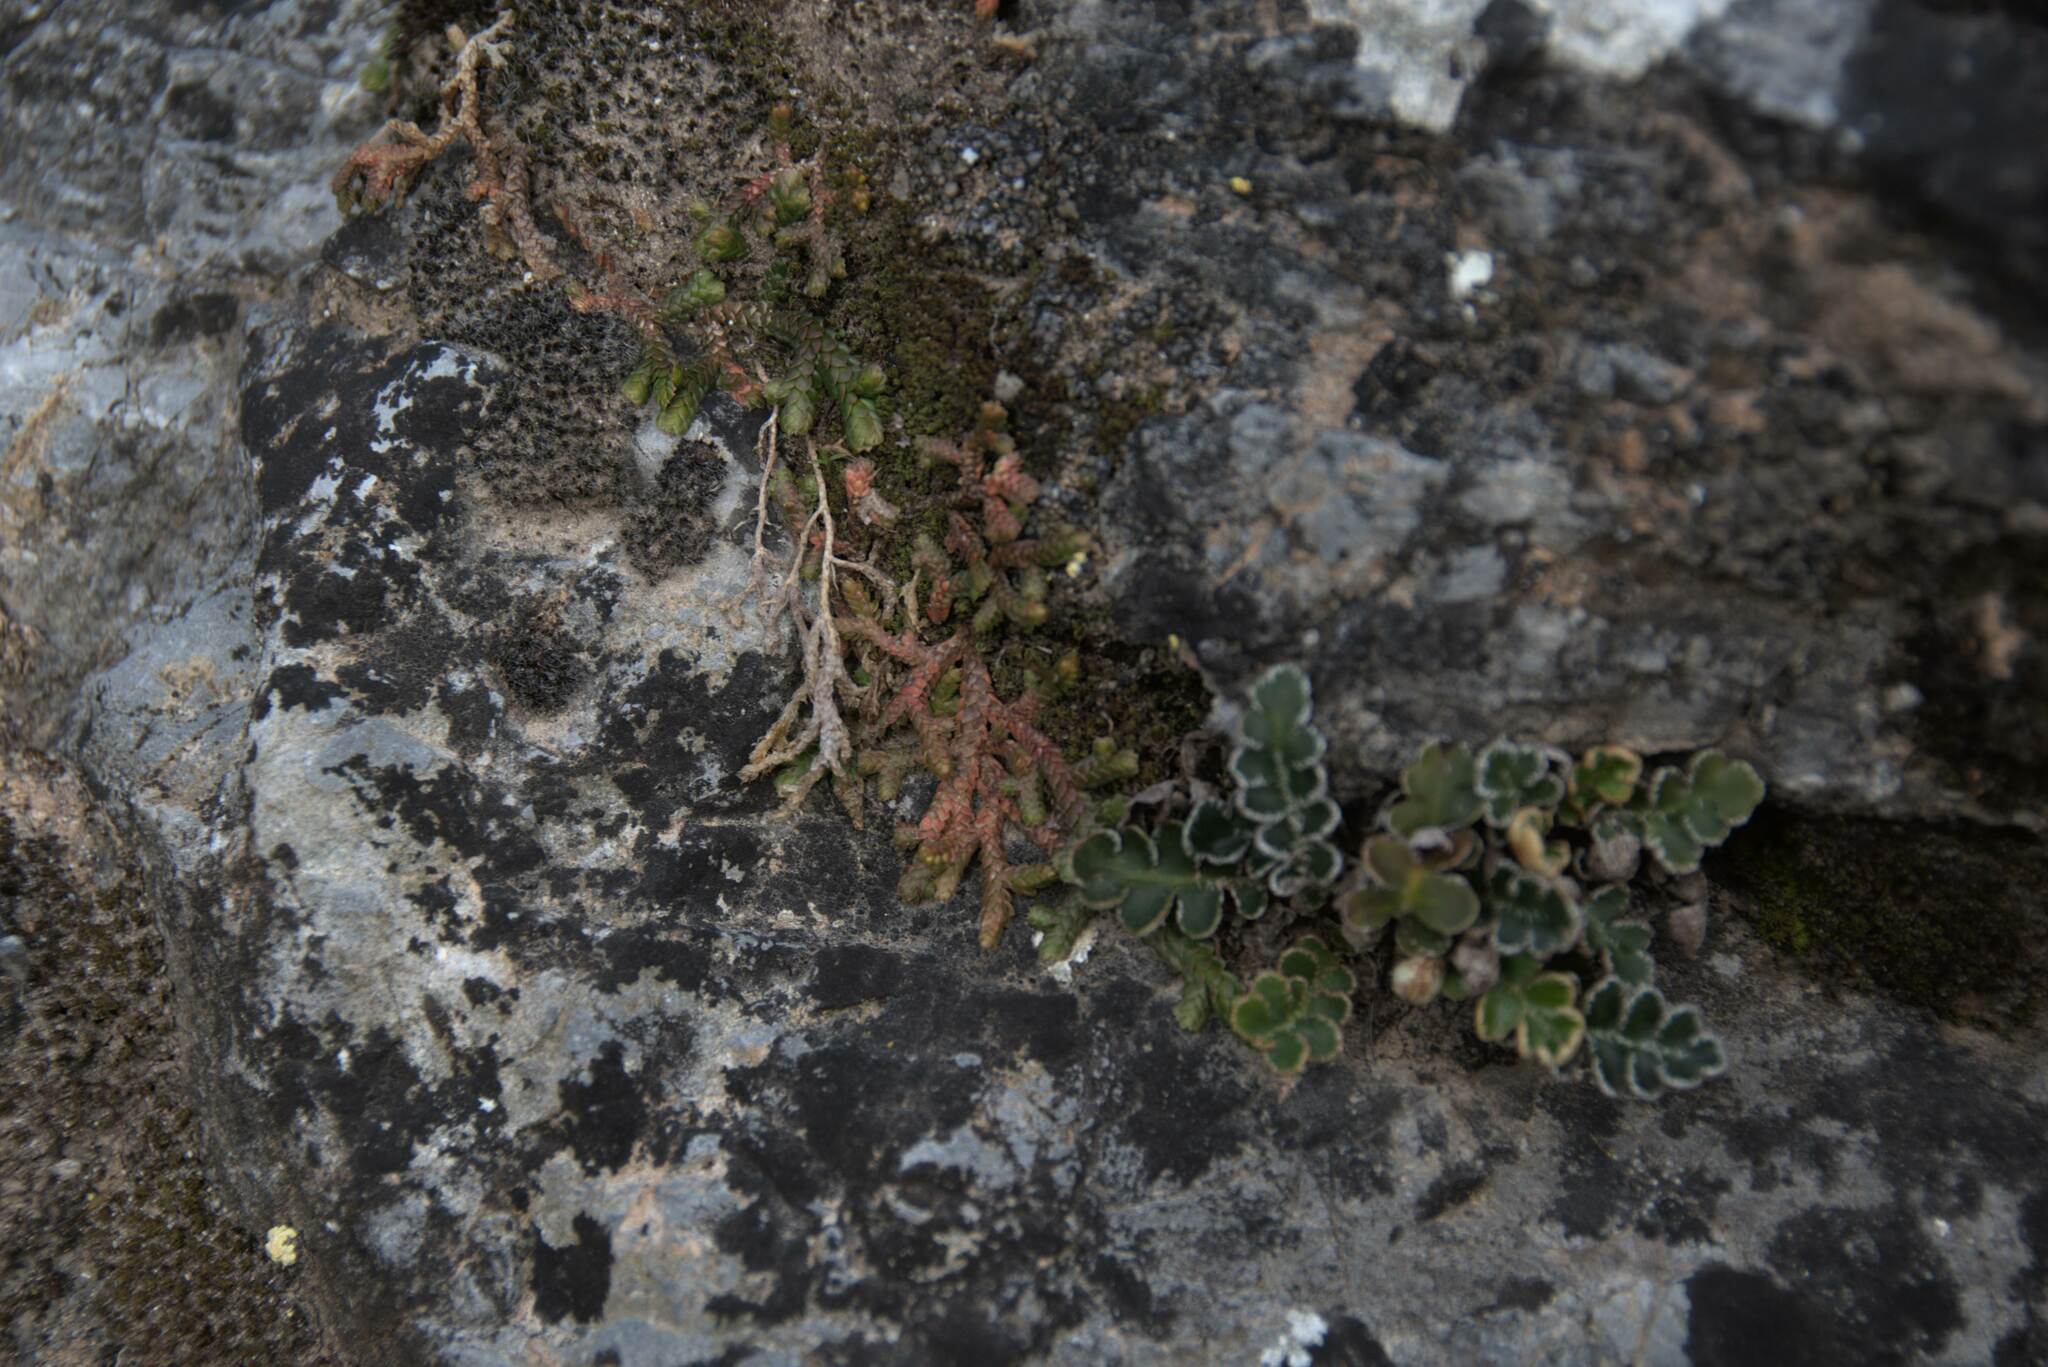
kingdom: Plantae
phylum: Tracheophyta
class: Lycopodiopsida
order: Selaginellales
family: Selaginellaceae
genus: Selaginella
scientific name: Selaginella denticulata
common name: Toothed-leaved clubmoss
